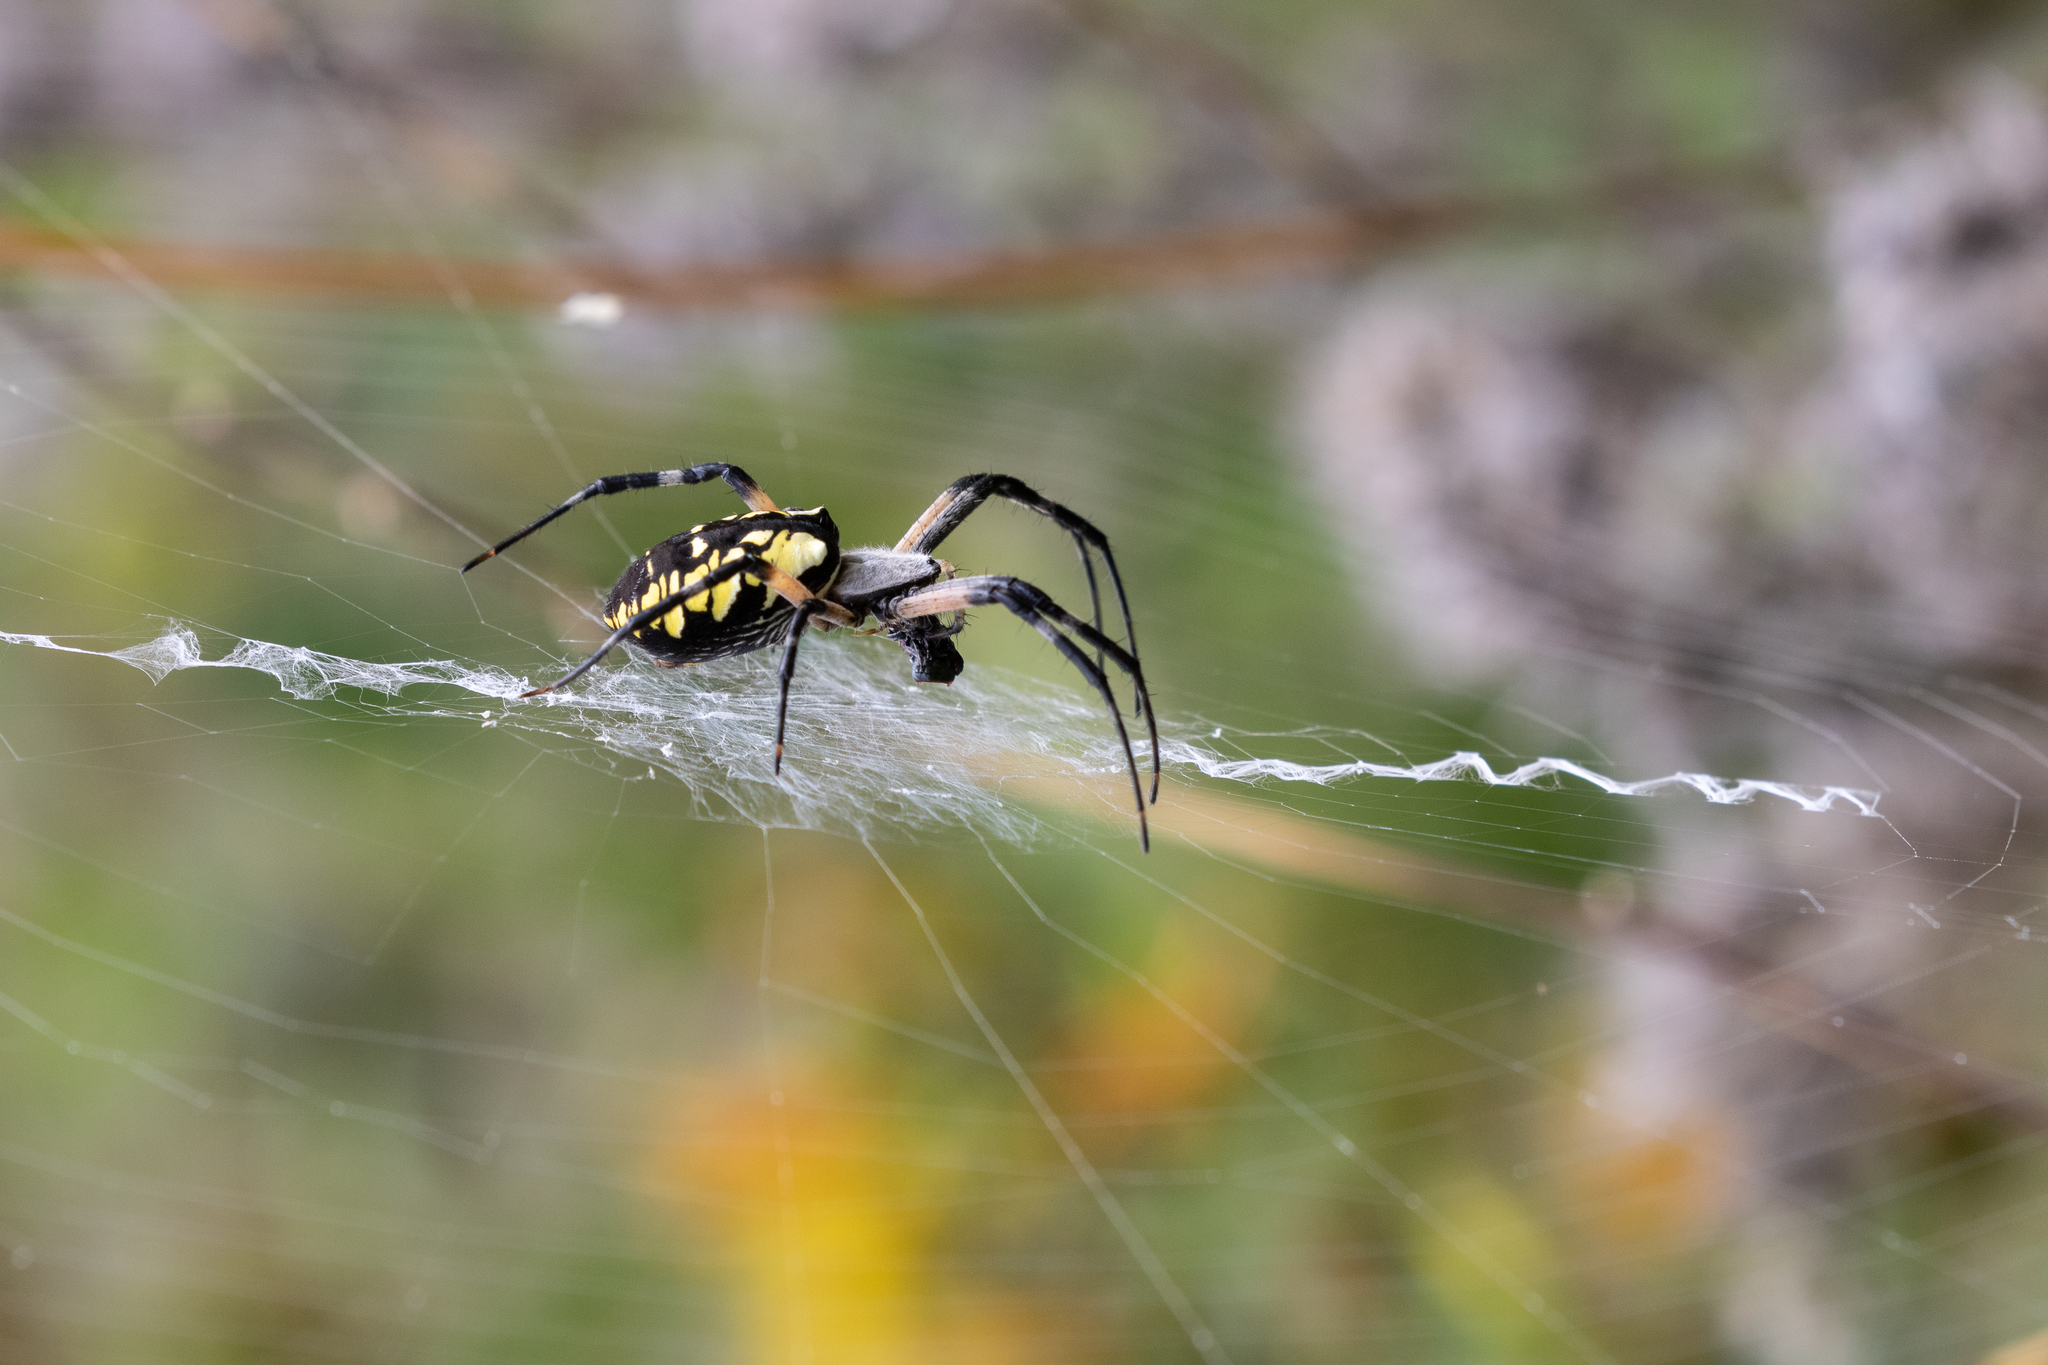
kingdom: Animalia
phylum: Arthropoda
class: Arachnida
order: Araneae
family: Araneidae
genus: Argiope
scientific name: Argiope aurantia
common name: Orb weavers
